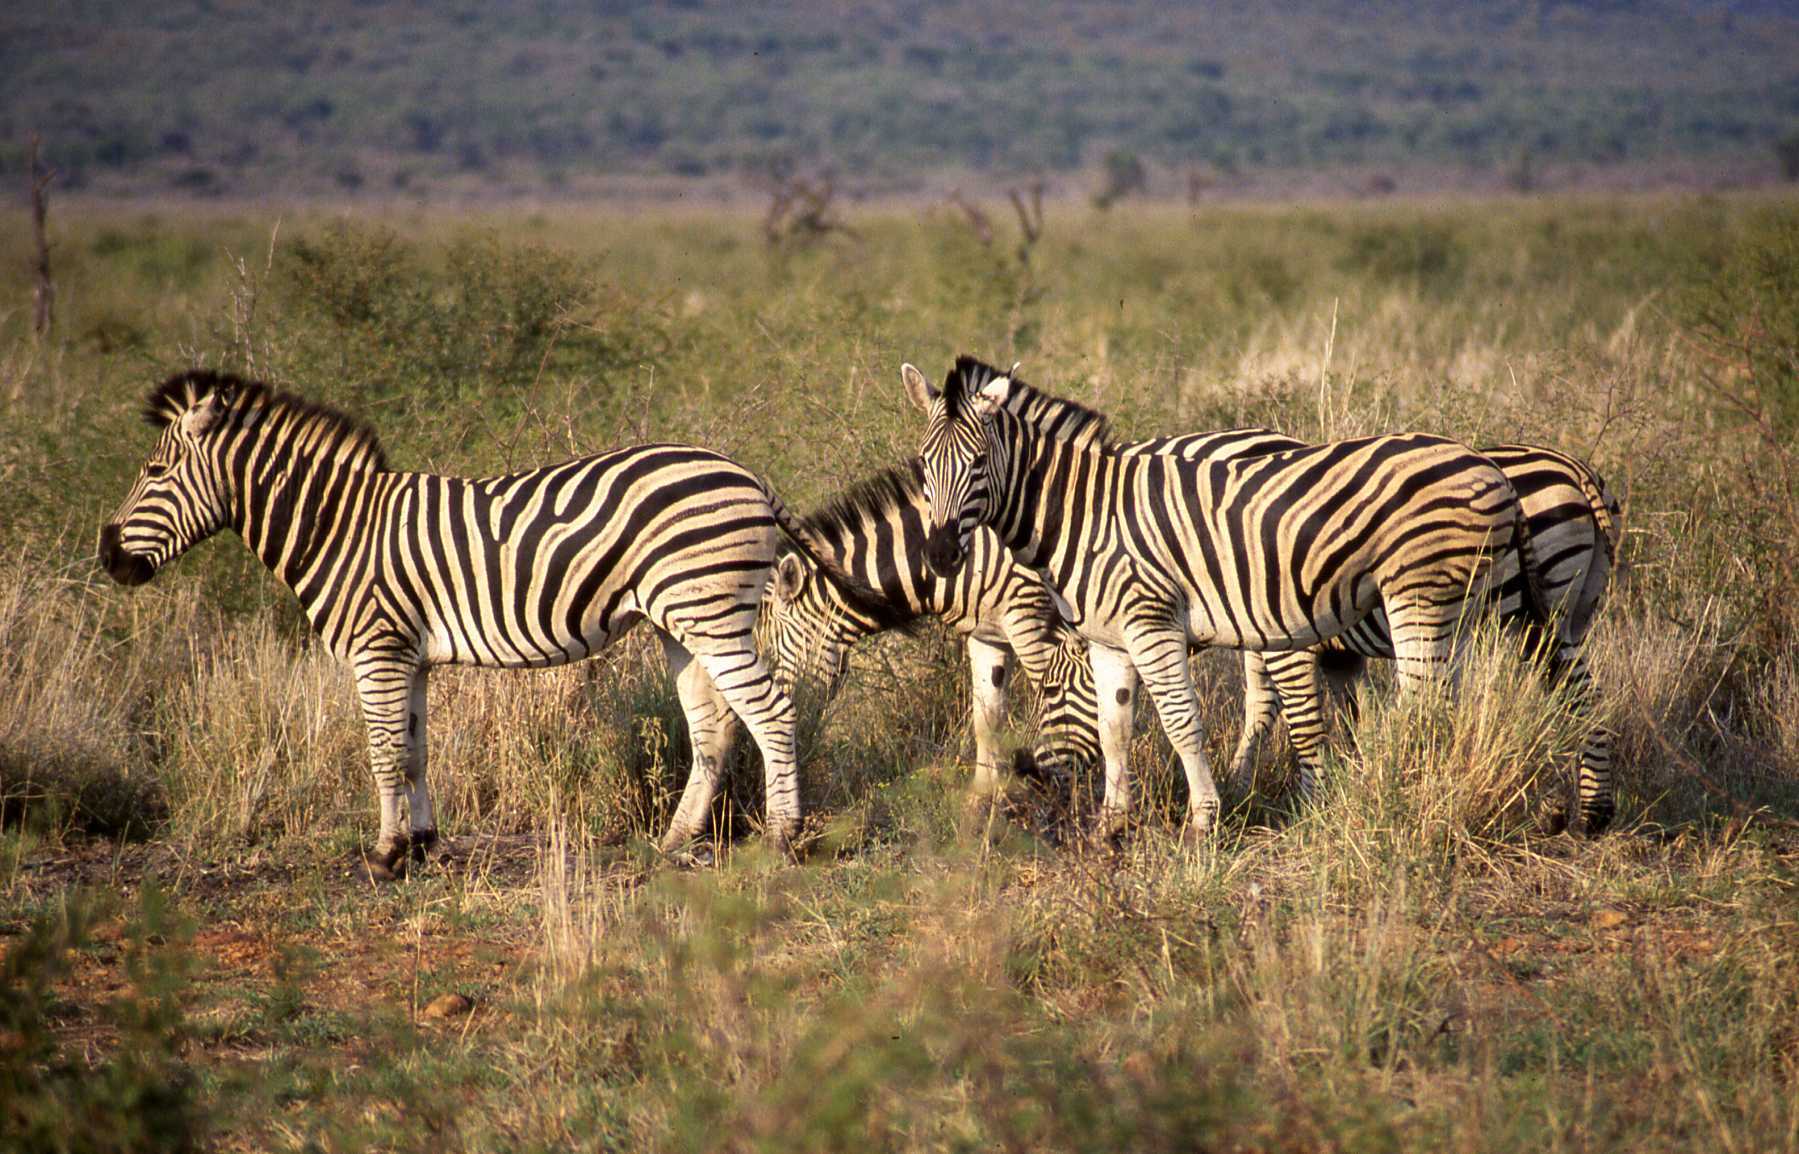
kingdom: Animalia
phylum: Chordata
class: Mammalia
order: Perissodactyla
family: Equidae
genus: Equus
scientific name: Equus quagga
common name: Plains zebra
